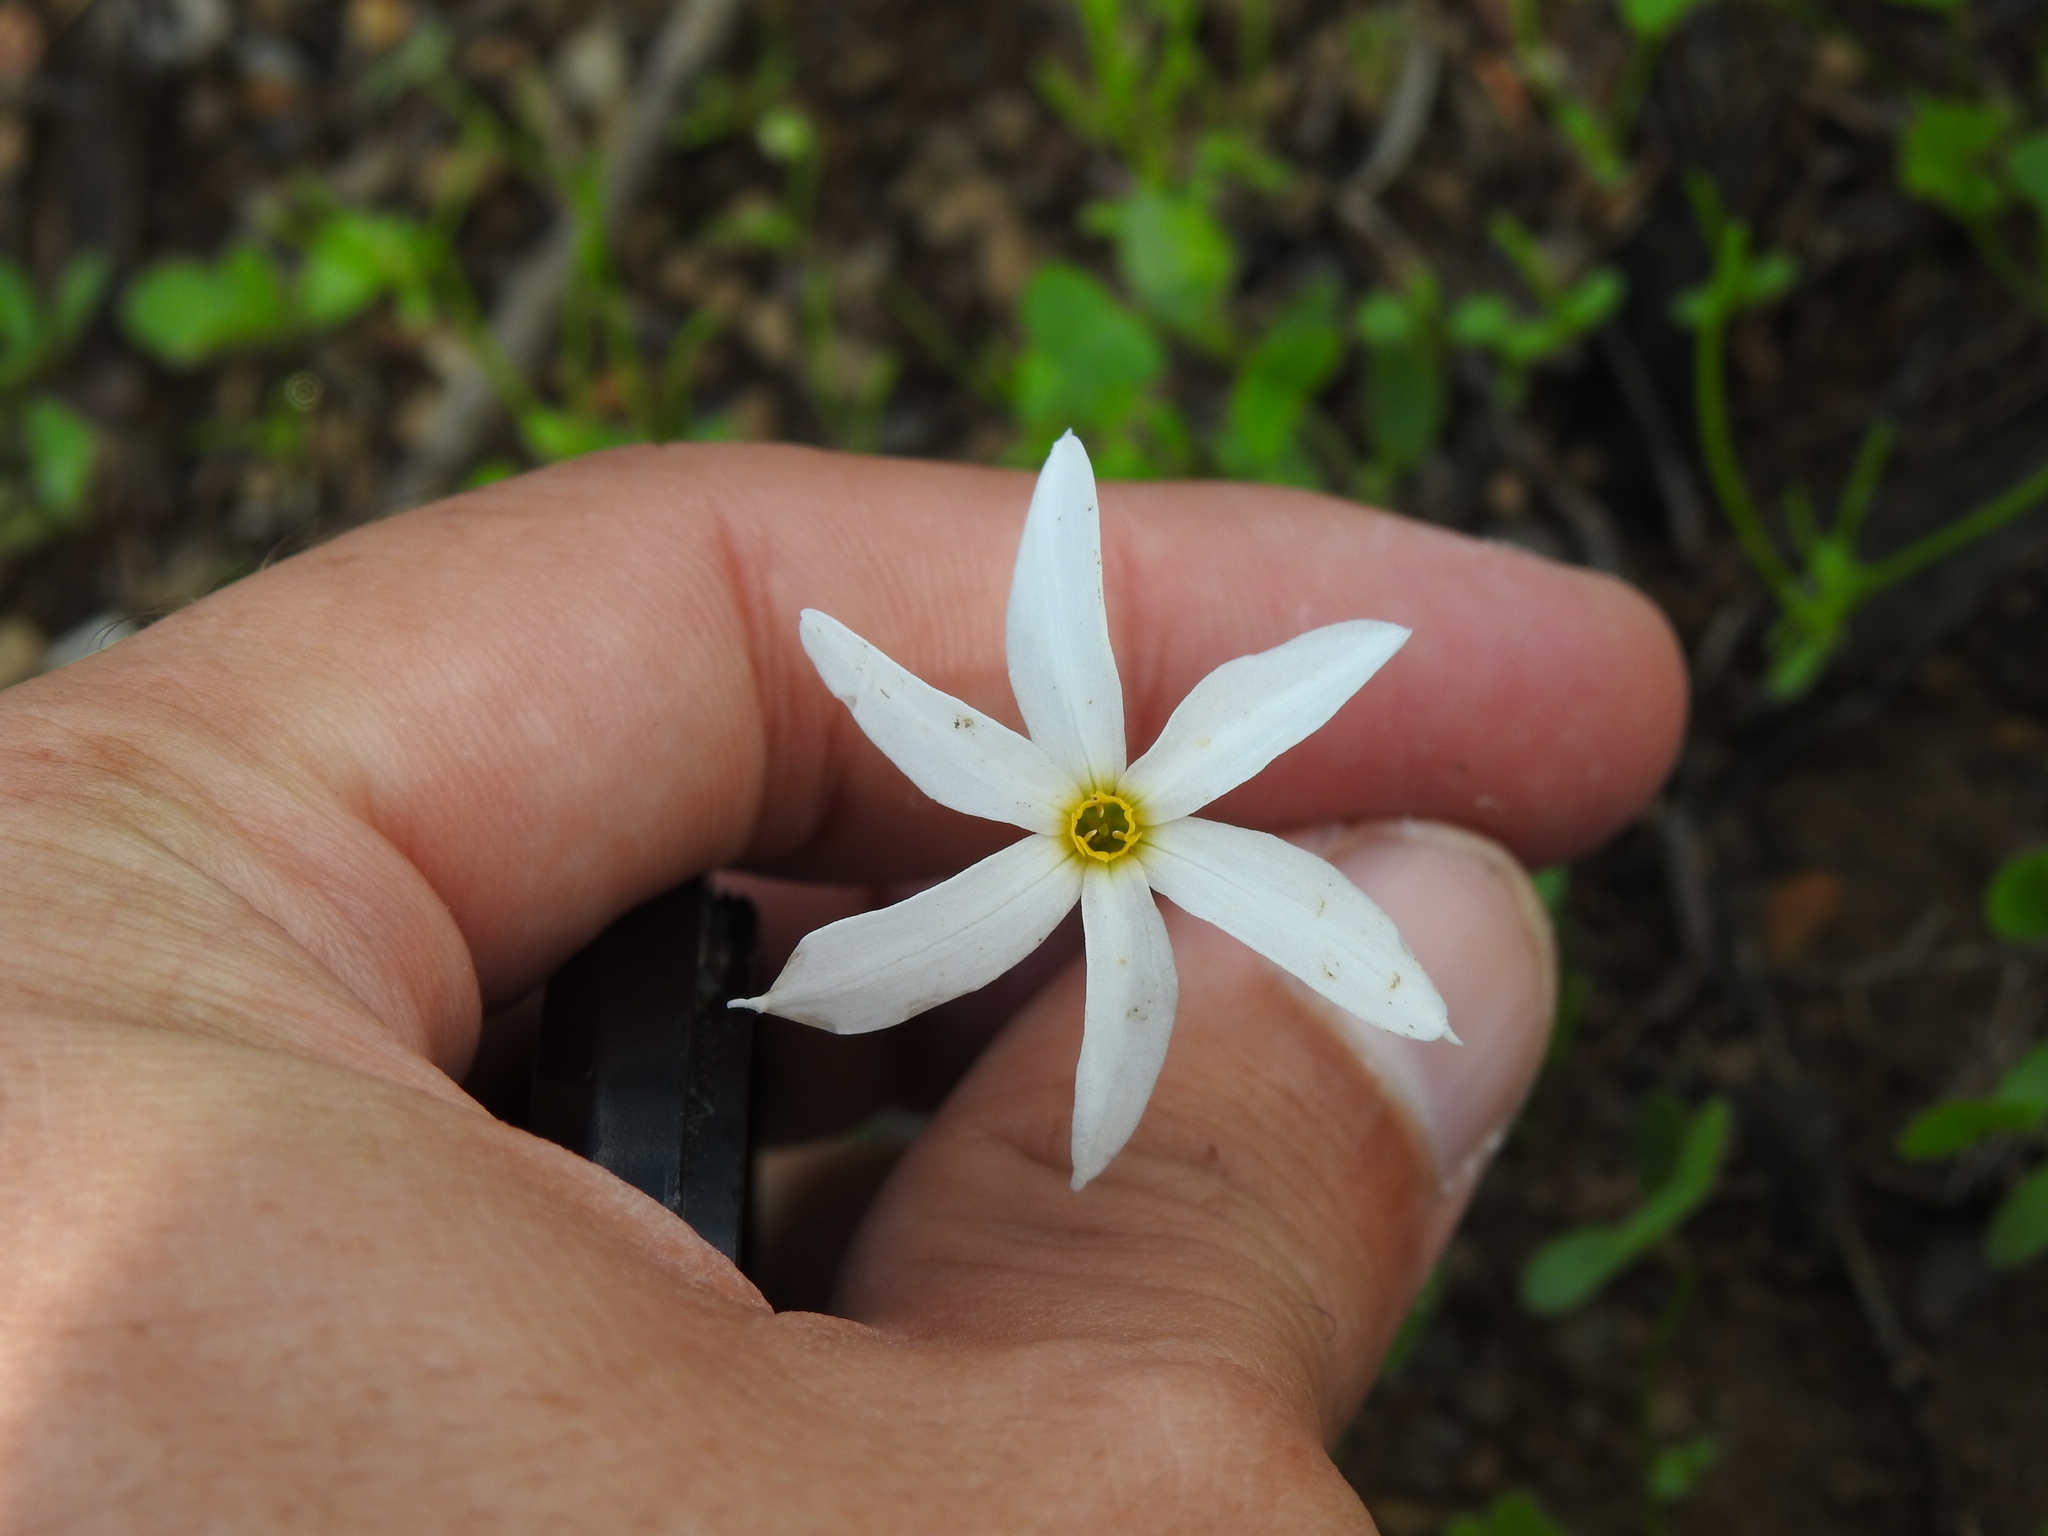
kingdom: Plantae
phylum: Tracheophyta
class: Liliopsida
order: Asparagales
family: Amaryllidaceae
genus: Narcissus
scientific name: Narcissus serotinus
